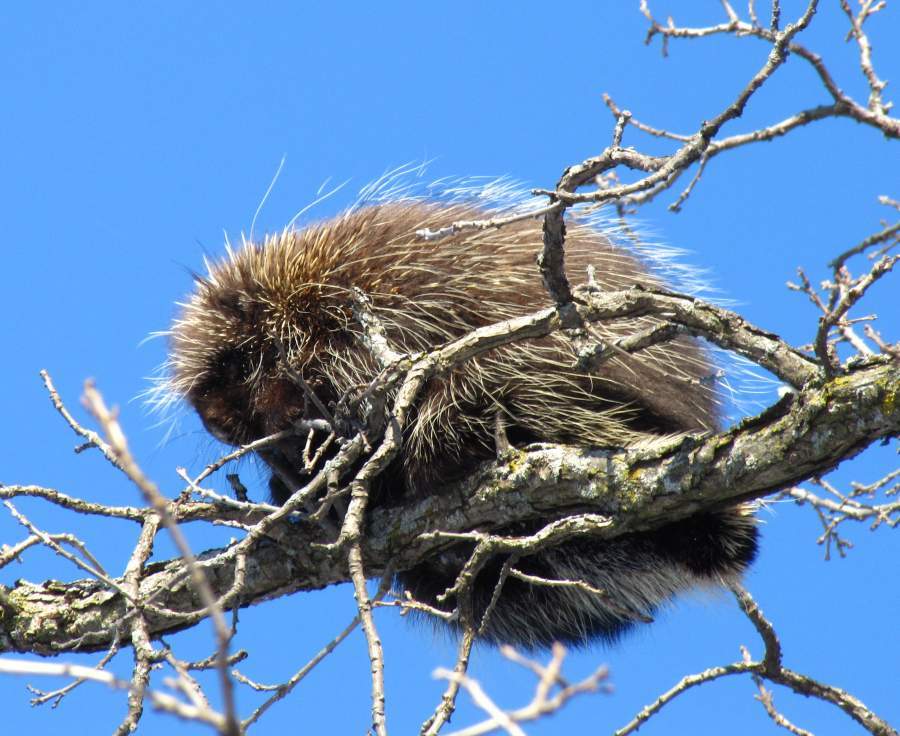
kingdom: Animalia
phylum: Chordata
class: Mammalia
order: Rodentia
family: Erethizontidae
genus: Erethizon
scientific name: Erethizon dorsatus
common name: North american porcupine
